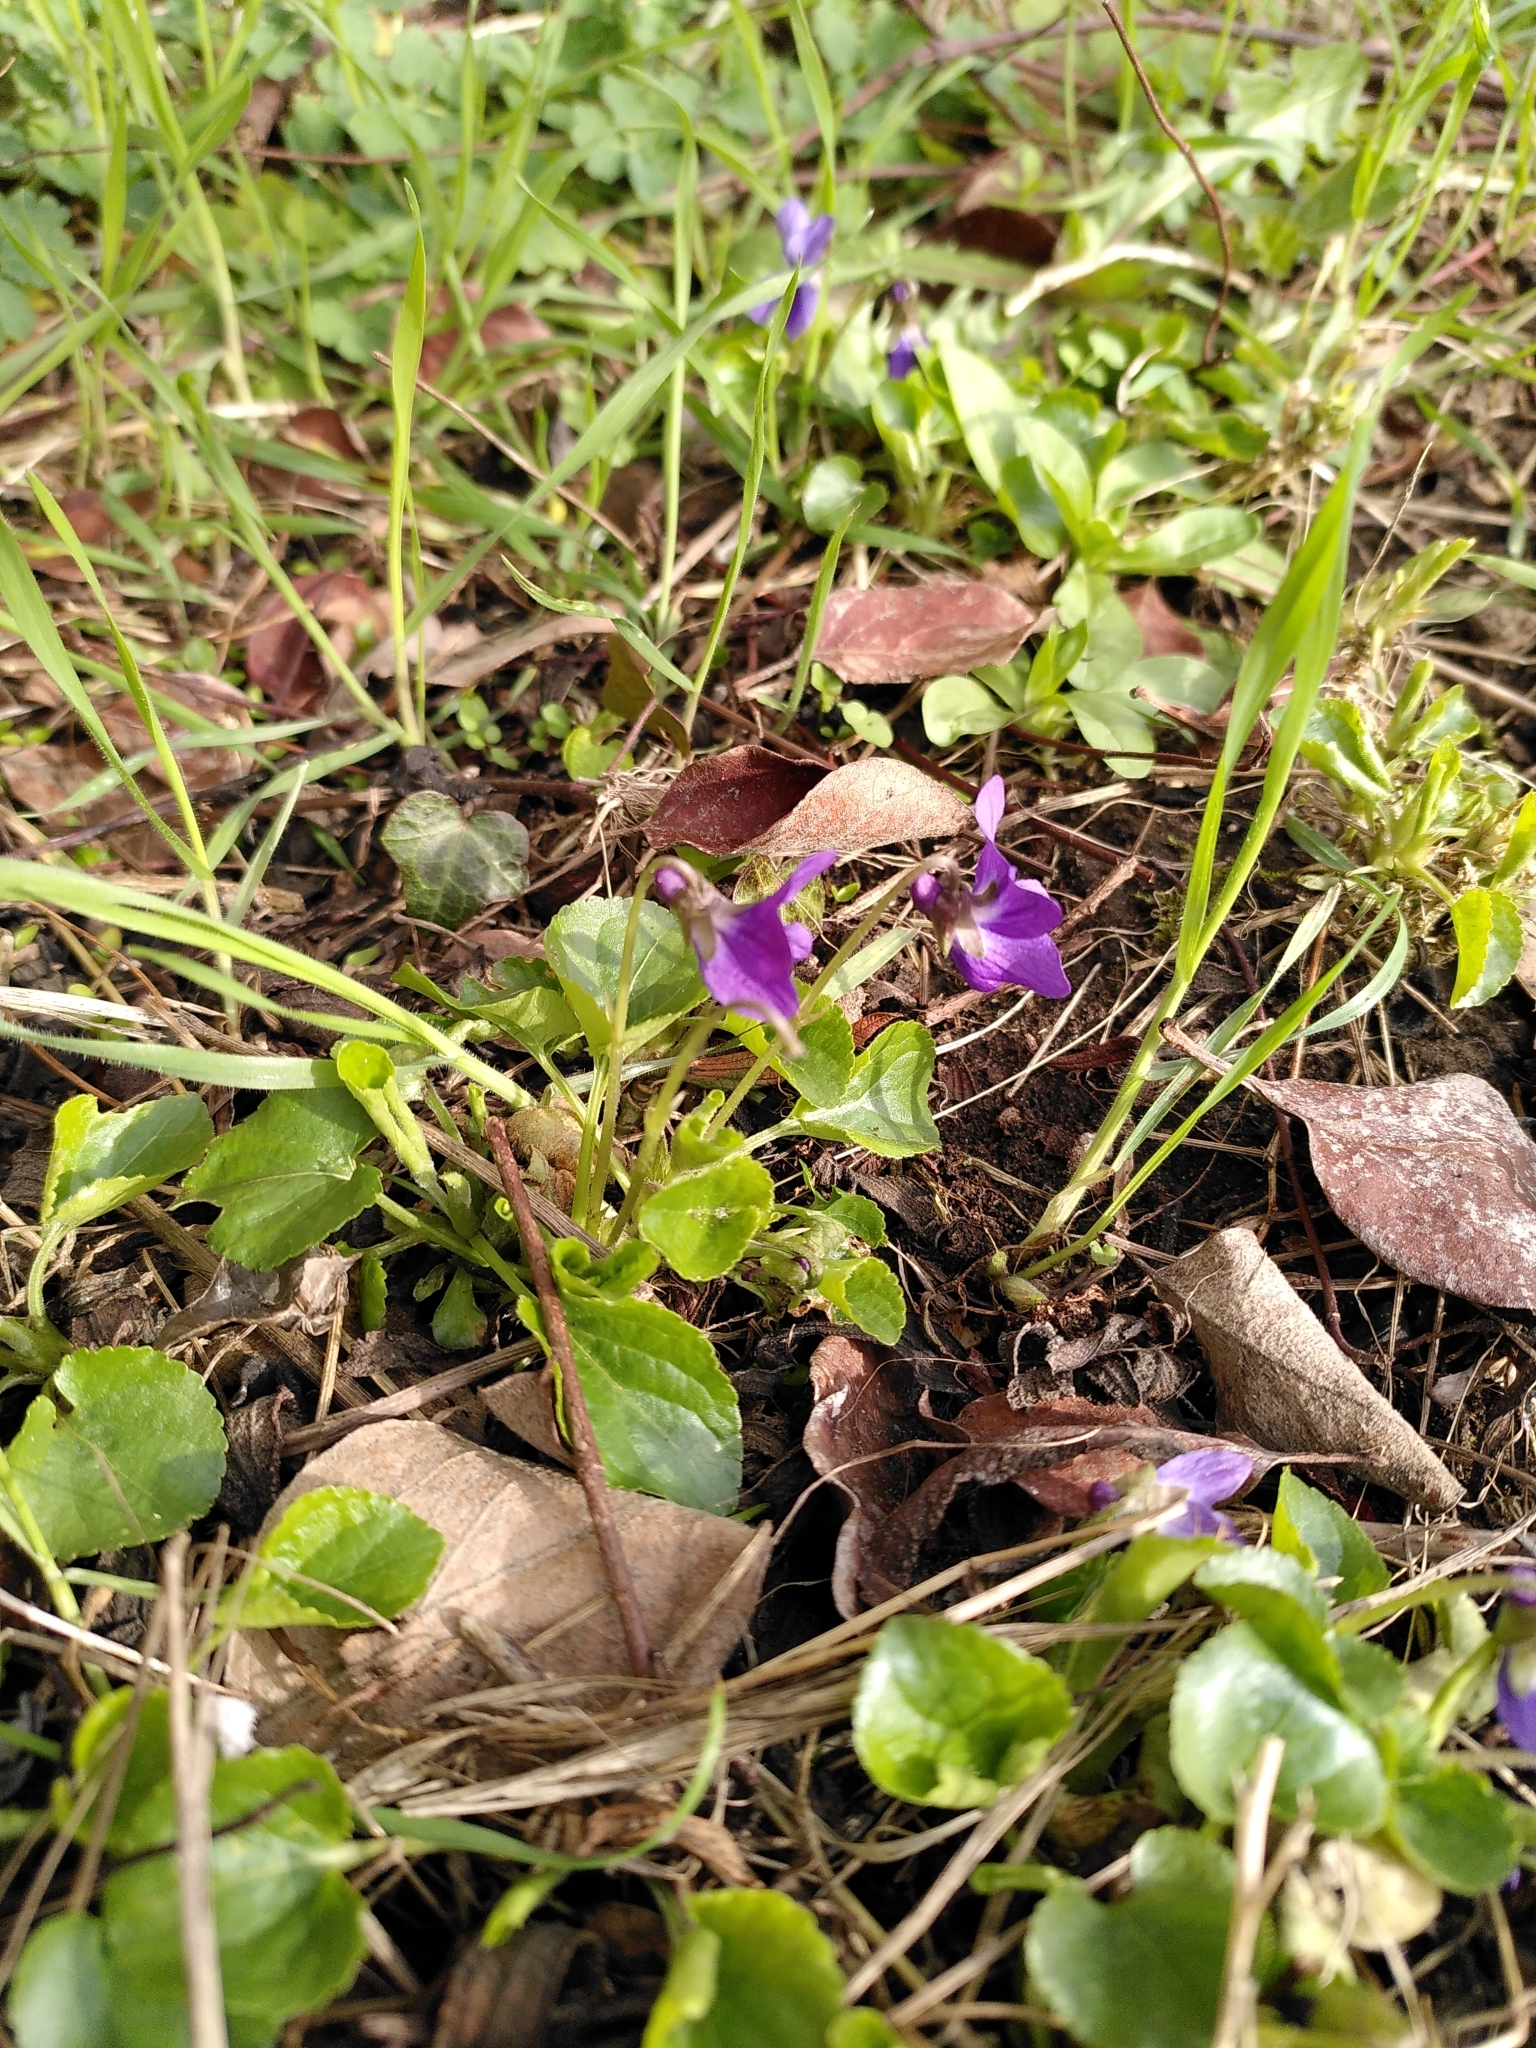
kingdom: Plantae
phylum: Tracheophyta
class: Magnoliopsida
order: Malpighiales
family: Violaceae
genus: Viola
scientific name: Viola odorata
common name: Sweet violet
